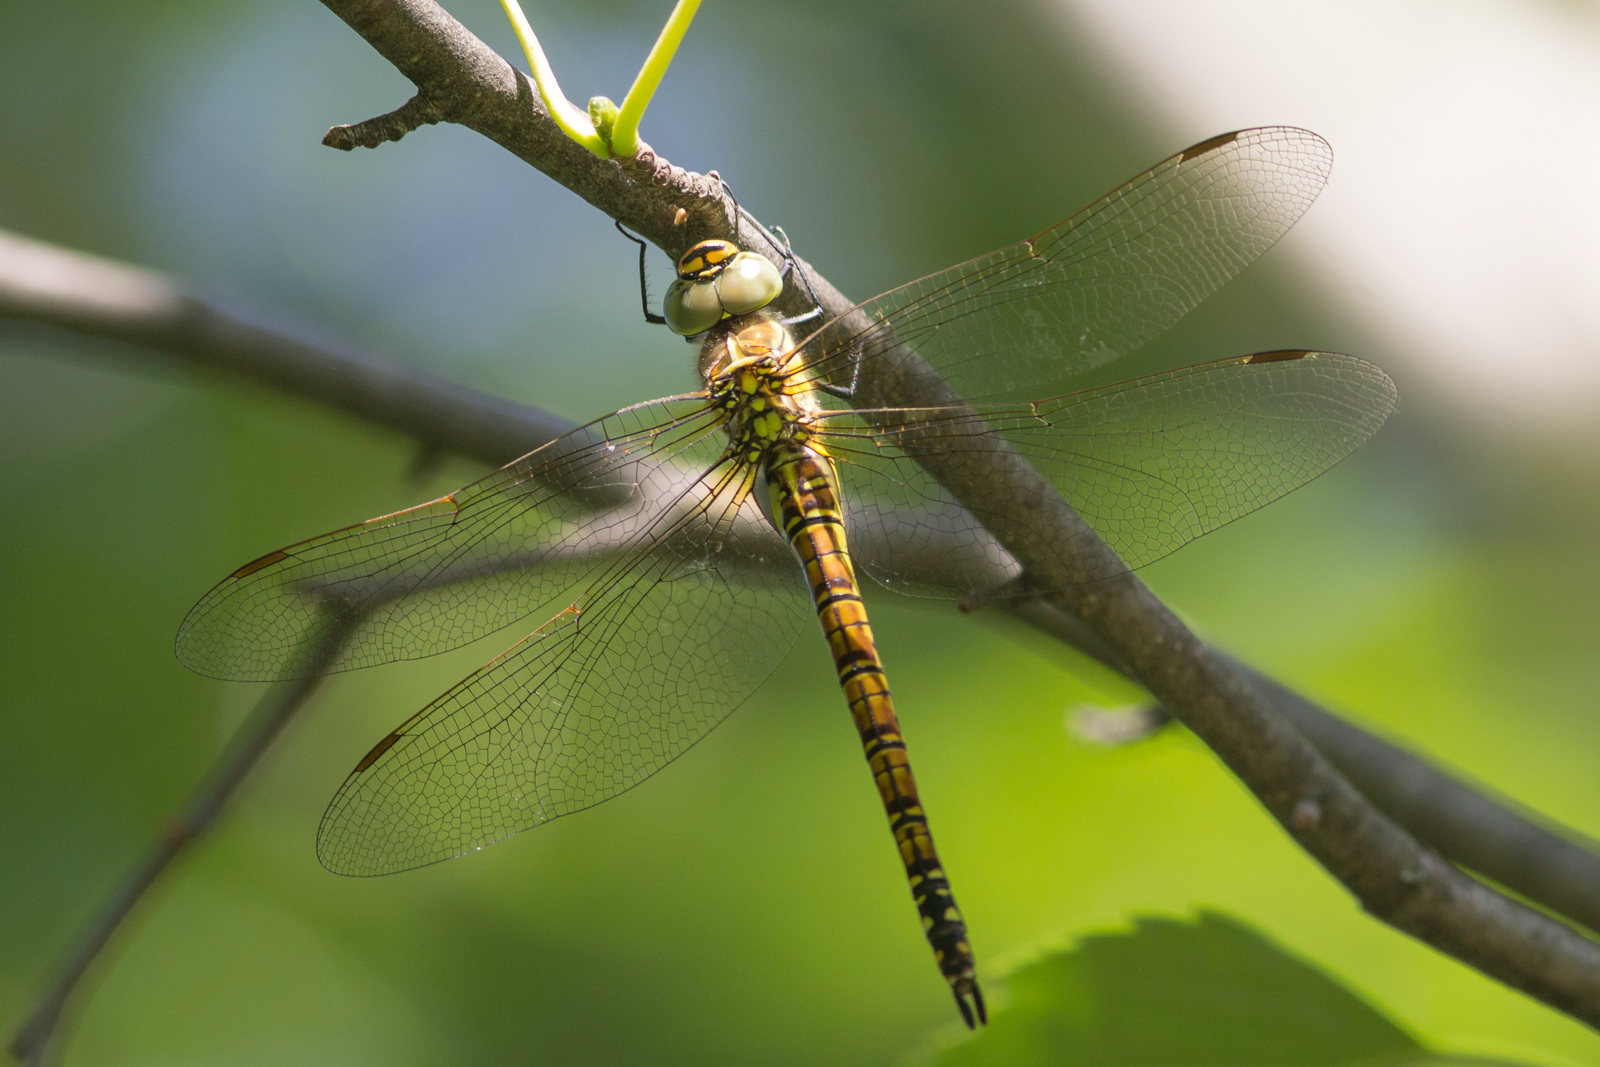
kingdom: Animalia
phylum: Arthropoda
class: Insecta
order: Odonata
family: Aeshnidae
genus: Aeshna
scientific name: Aeshna affinis
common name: Southern migrant hawker
